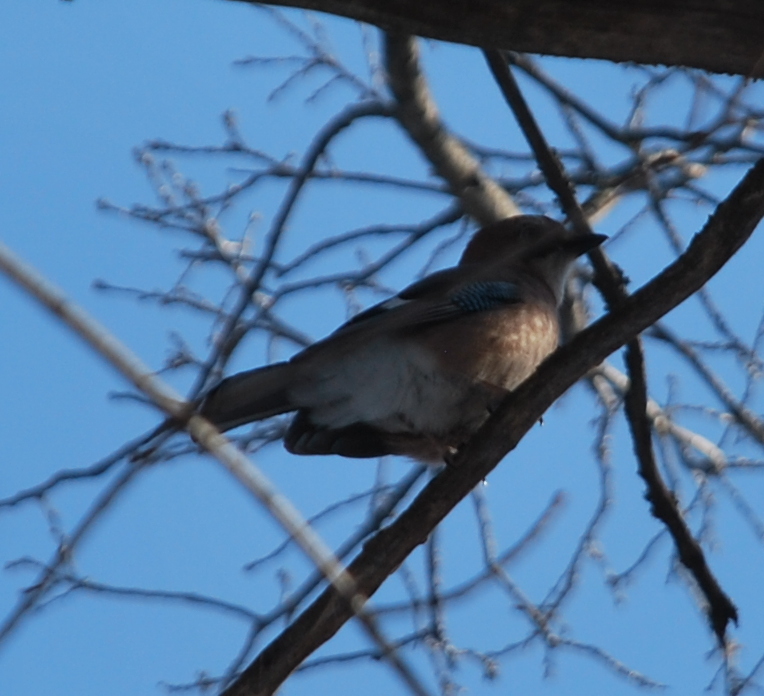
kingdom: Animalia
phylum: Chordata
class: Aves
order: Passeriformes
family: Corvidae
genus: Garrulus
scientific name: Garrulus glandarius
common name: Eurasian jay
